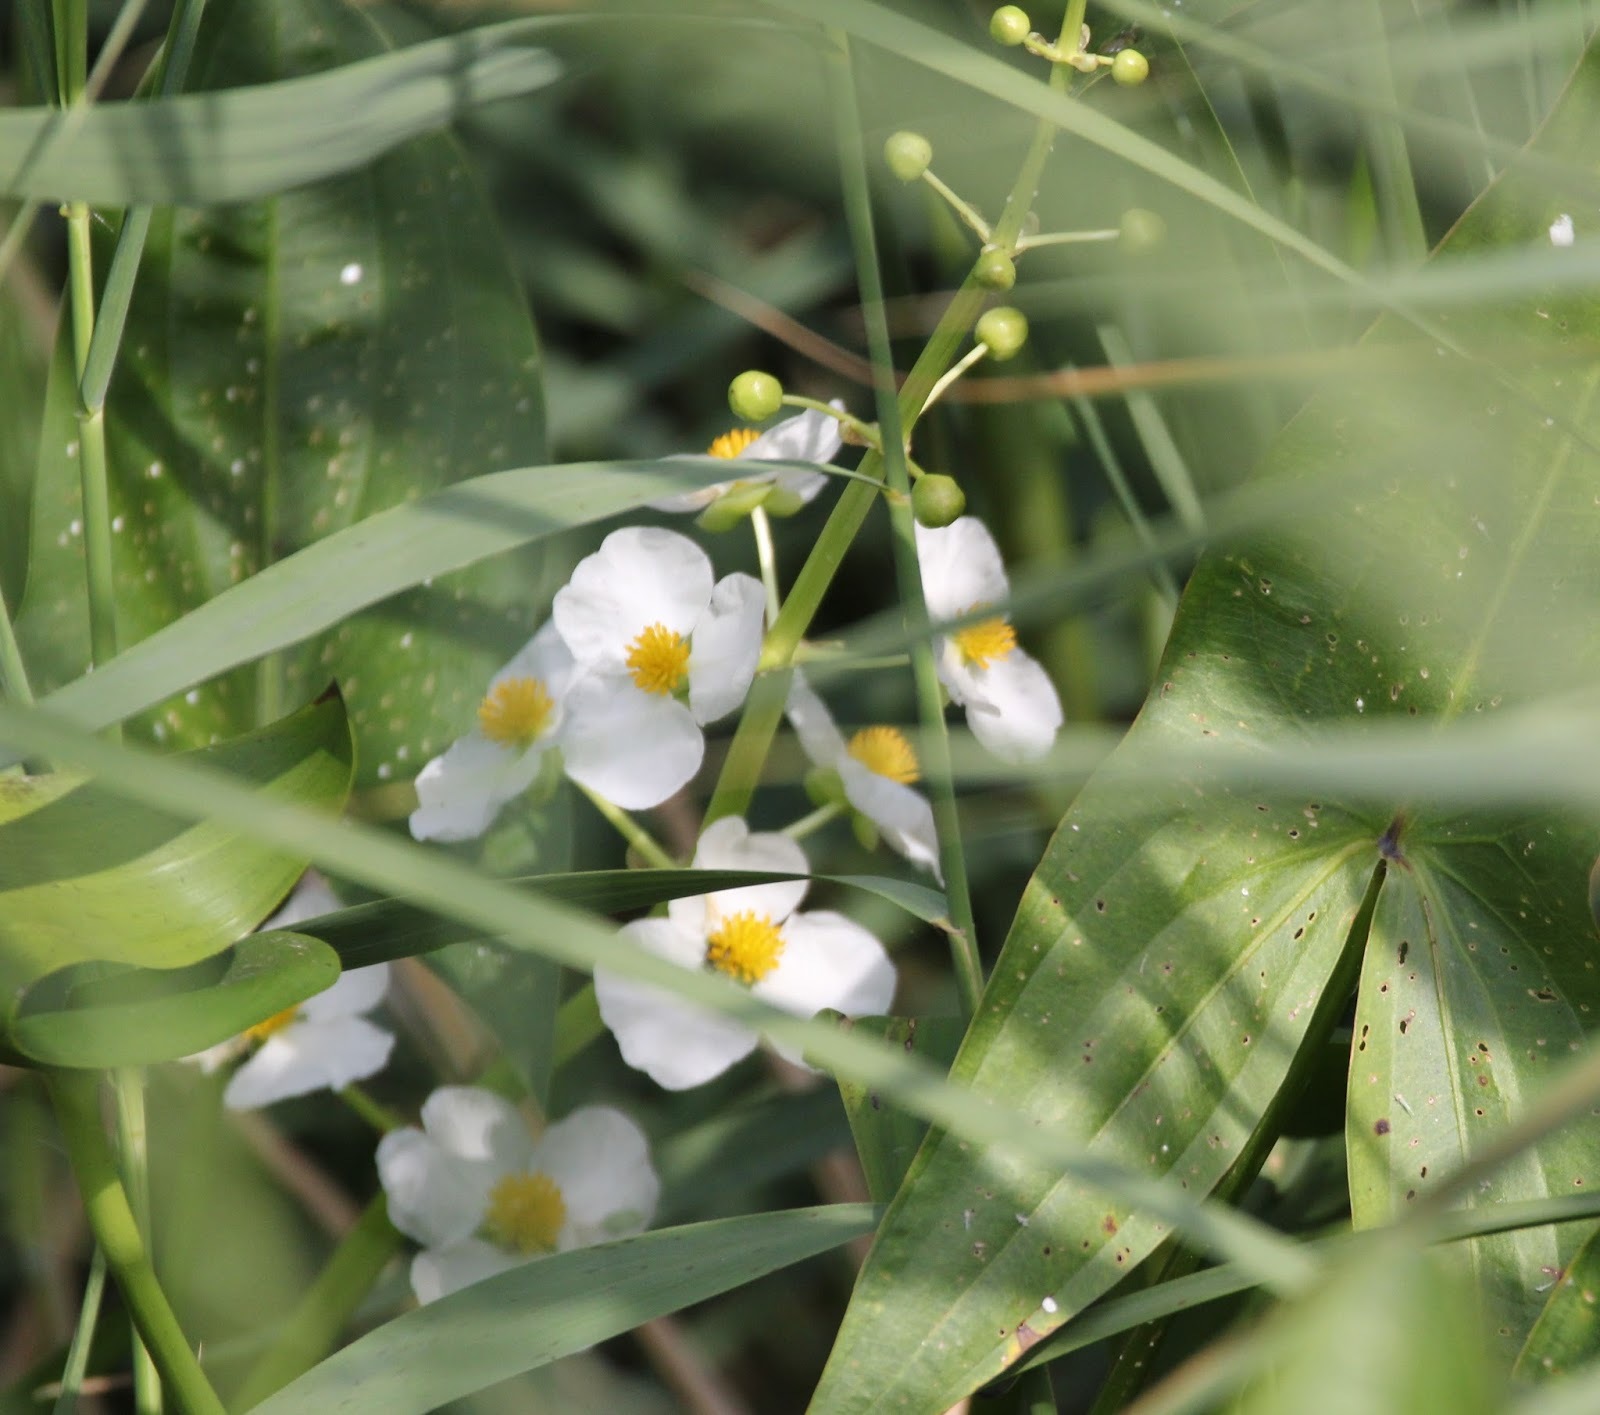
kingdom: Plantae
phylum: Tracheophyta
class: Liliopsida
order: Alismatales
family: Alismataceae
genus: Sagittaria
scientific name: Sagittaria latifolia
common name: Duck-potato
